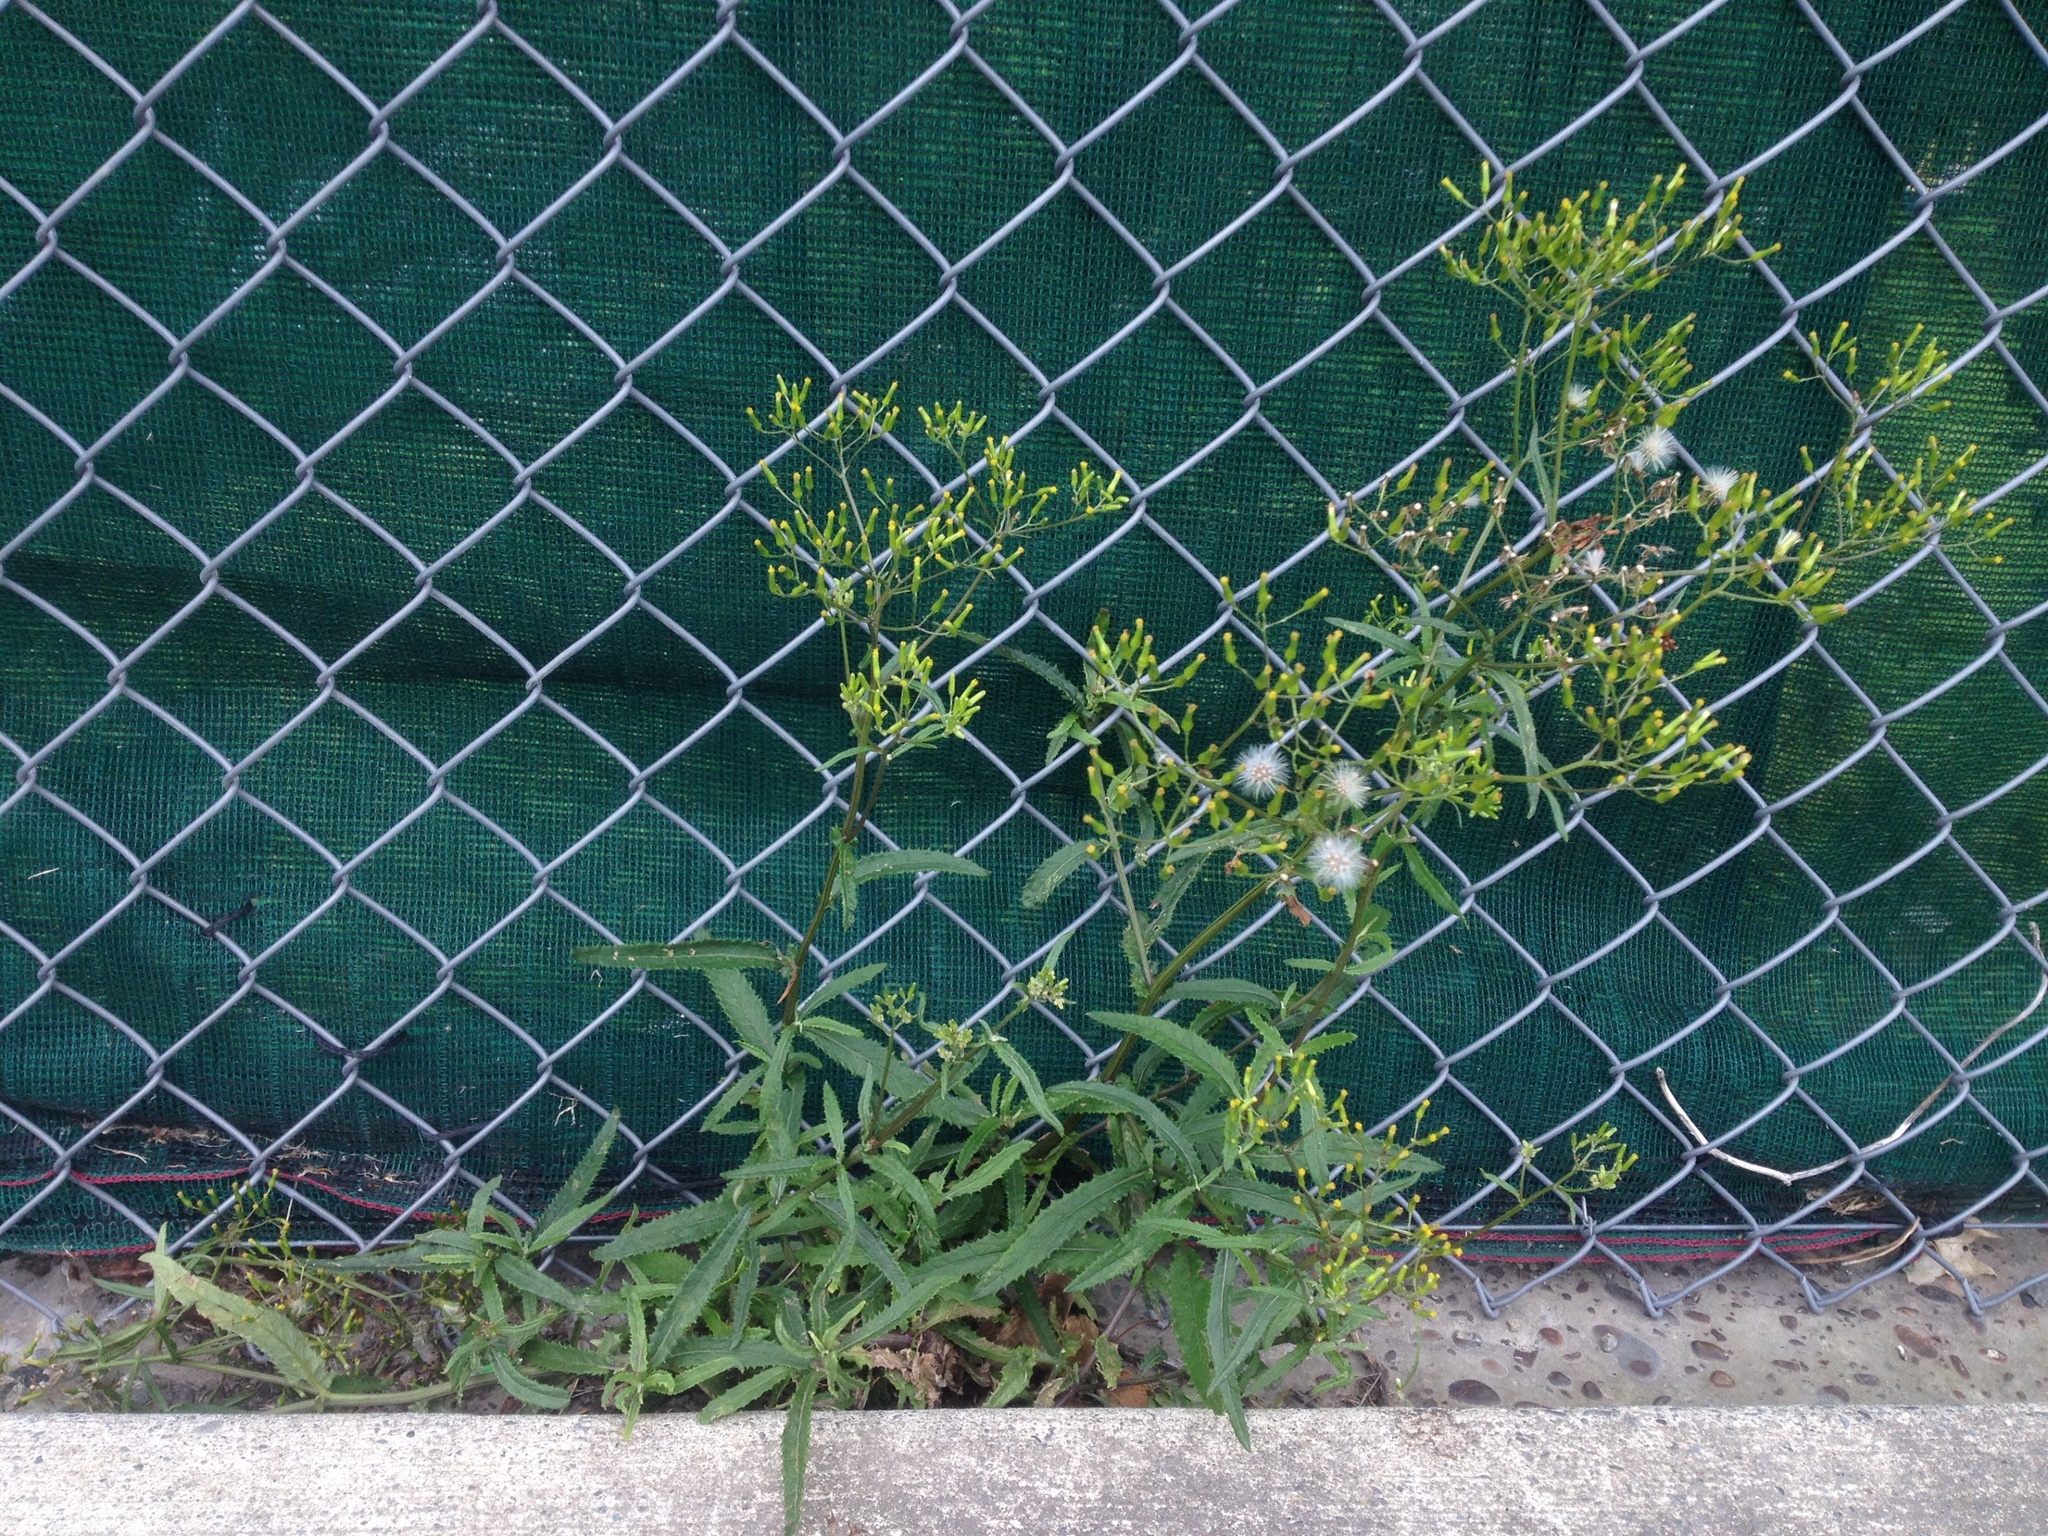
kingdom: Plantae
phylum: Tracheophyta
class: Magnoliopsida
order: Asterales
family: Asteraceae
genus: Senecio
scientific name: Senecio minimus
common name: Toothed fireweed
